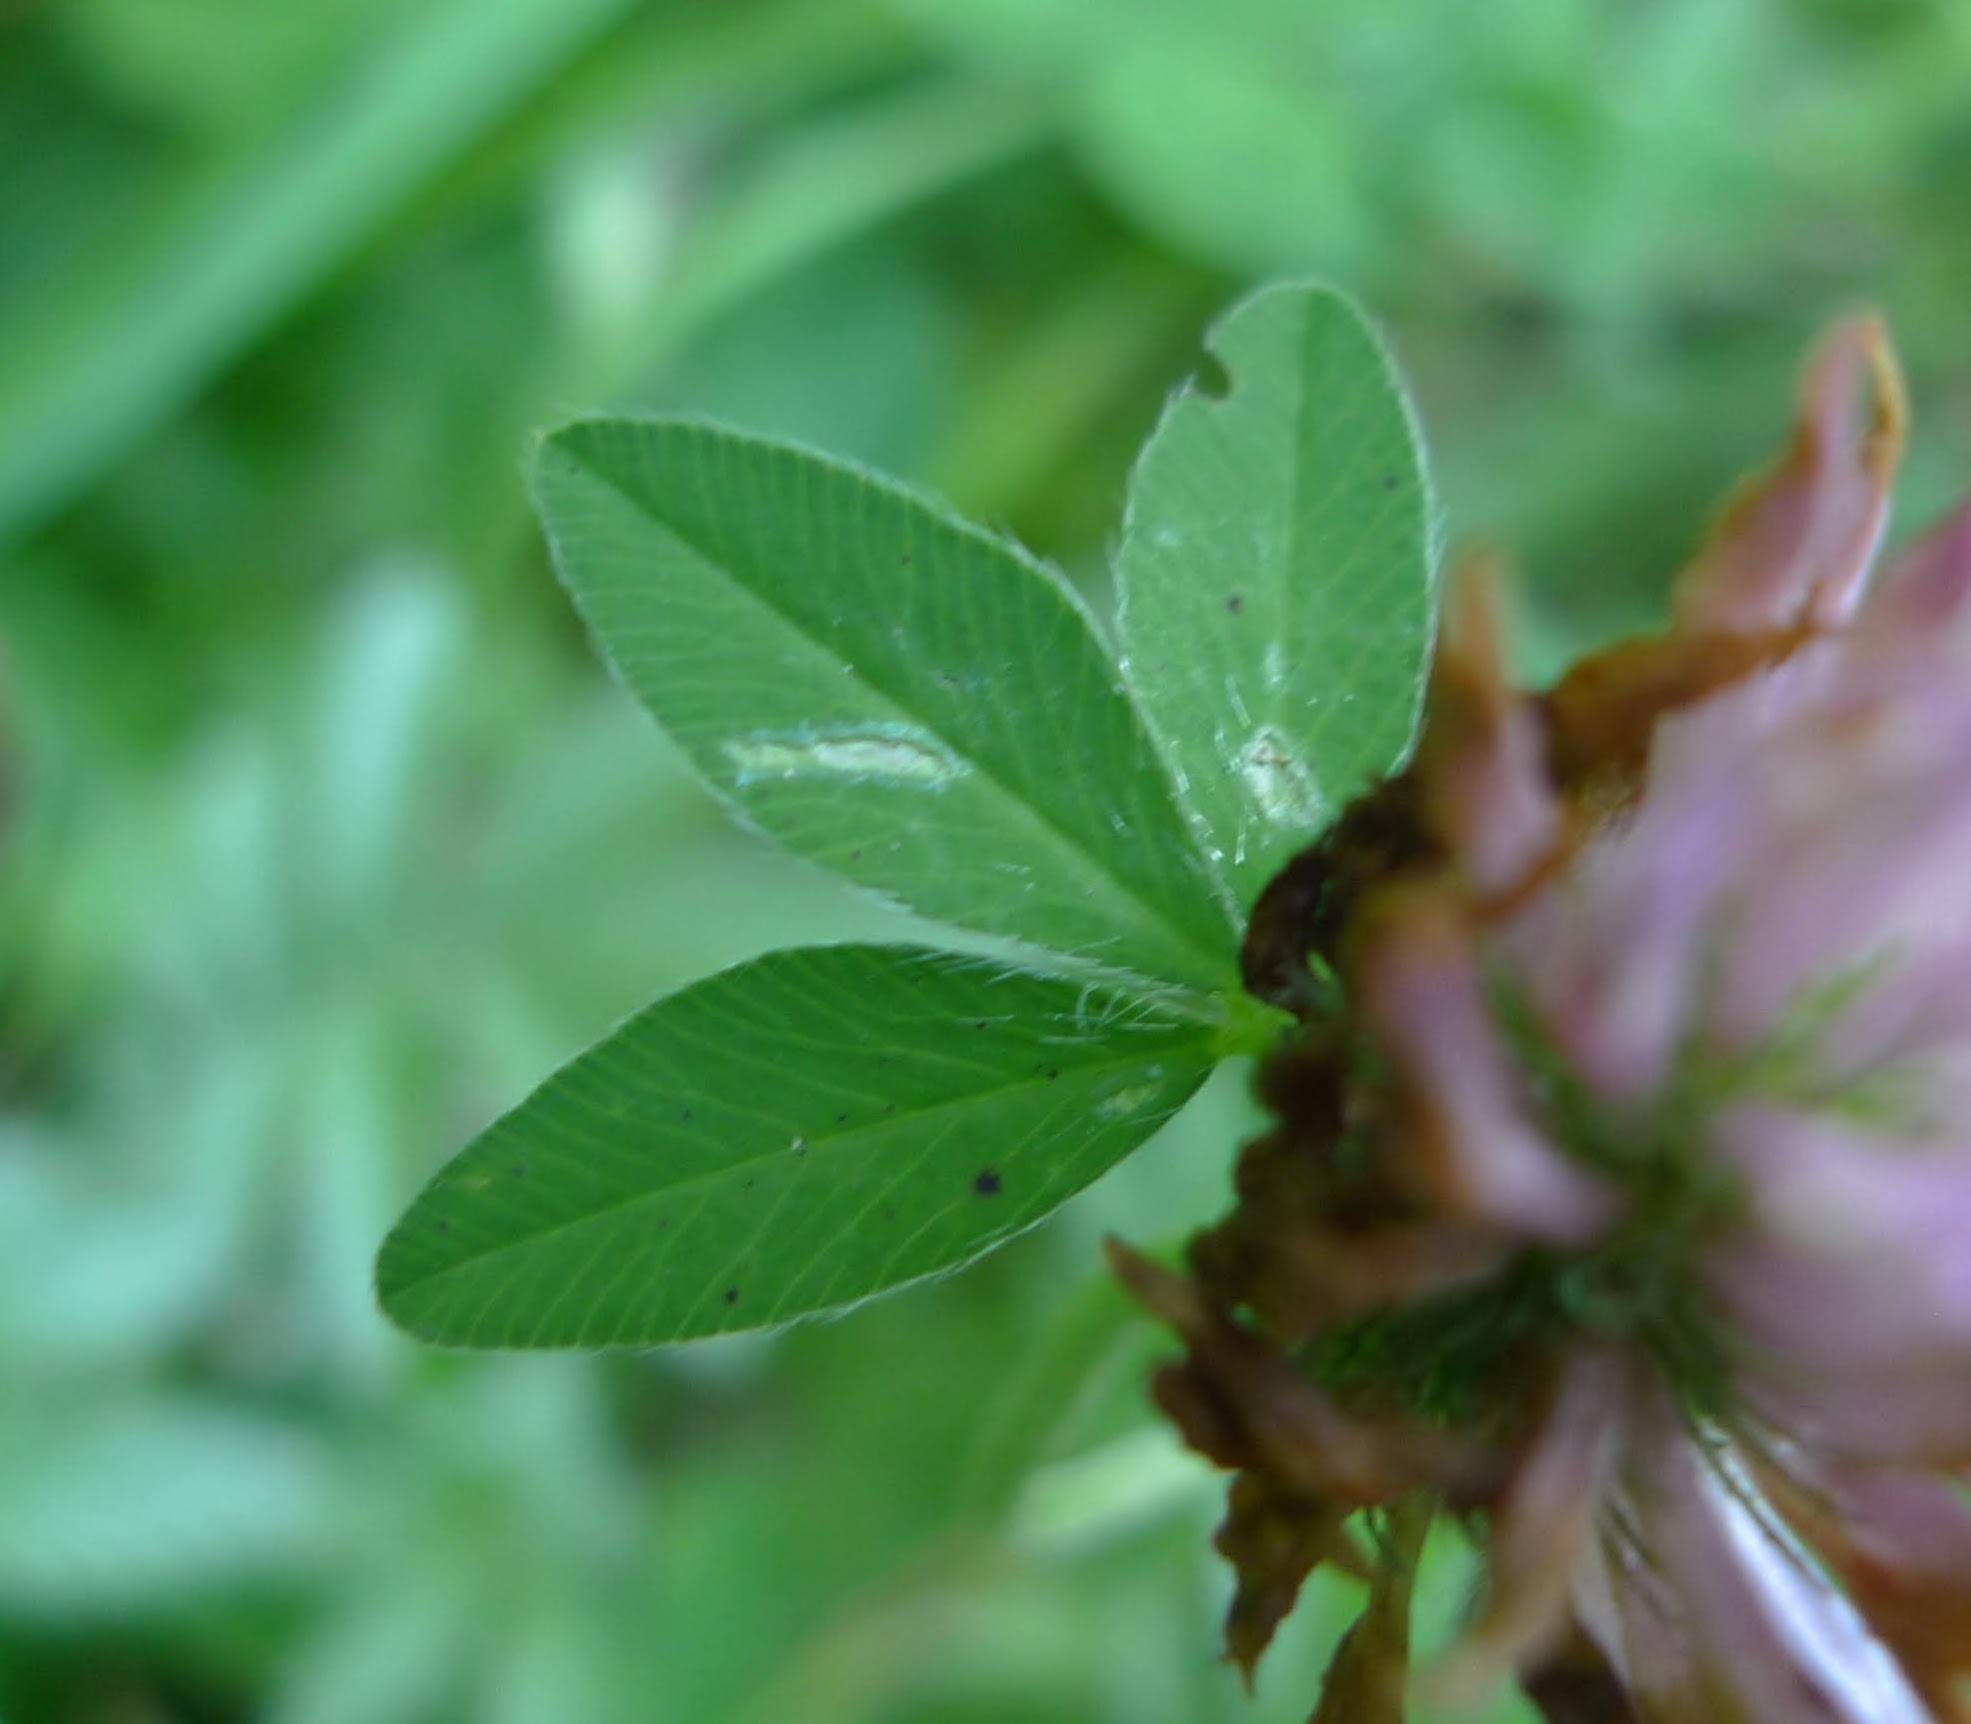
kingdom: Plantae
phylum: Tracheophyta
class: Magnoliopsida
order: Fabales
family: Fabaceae
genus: Trifolium
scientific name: Trifolium pratense
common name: Red clover
